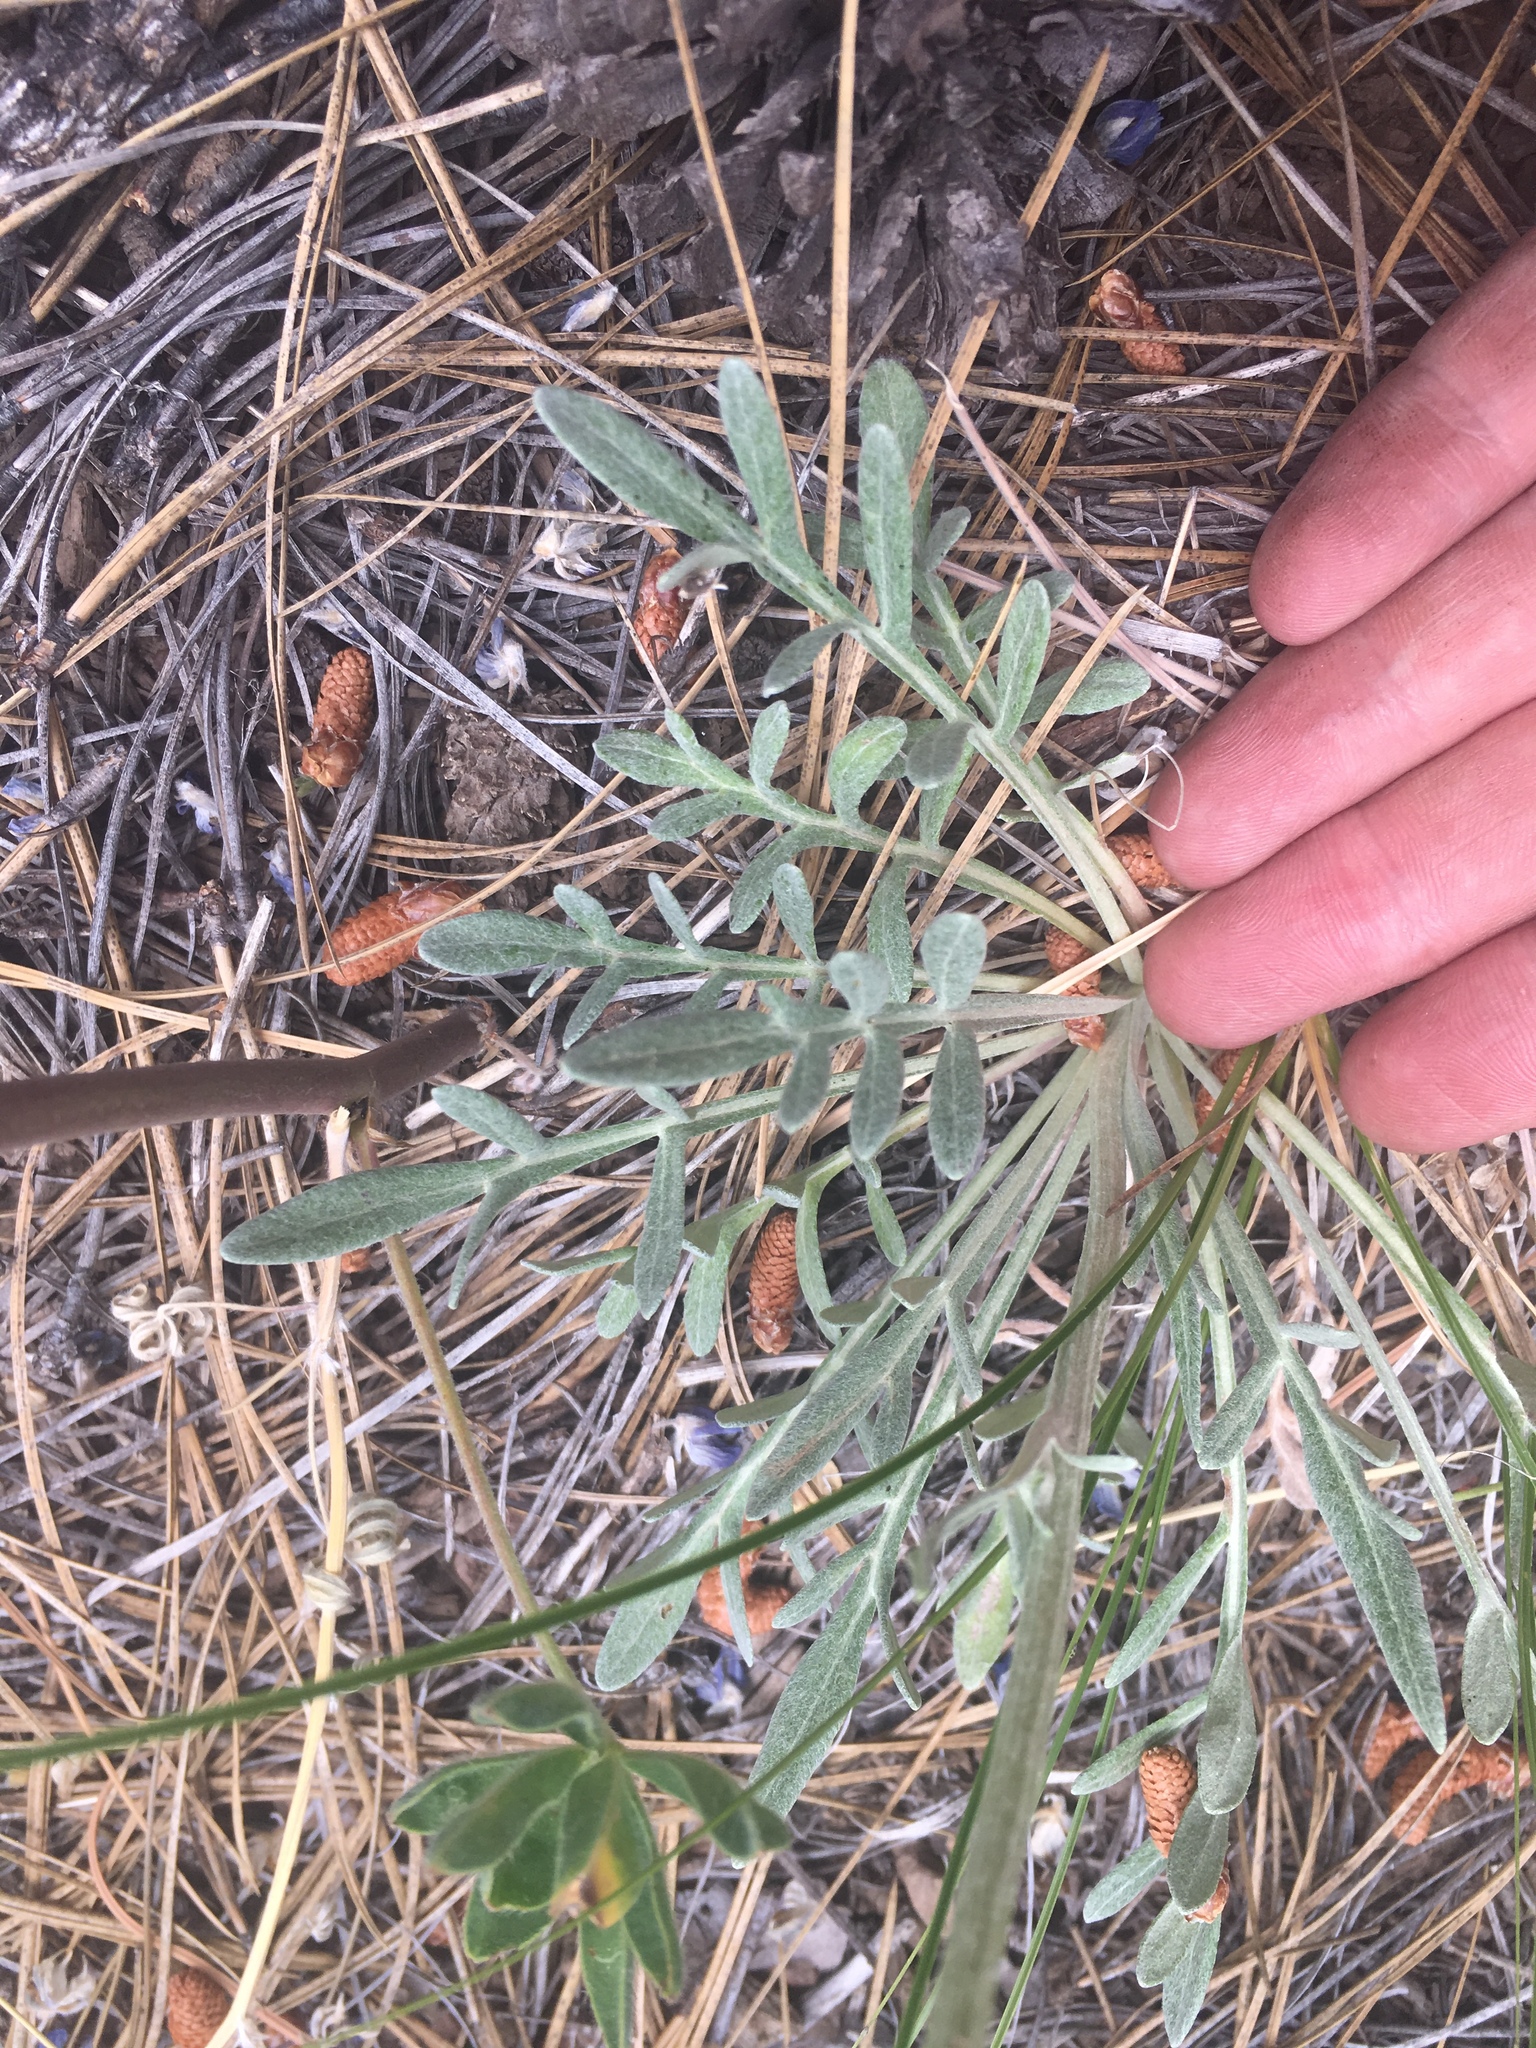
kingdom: Plantae
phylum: Tracheophyta
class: Magnoliopsida
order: Asterales
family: Asteraceae
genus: Hymenopappus
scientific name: Hymenopappus mexicanus
